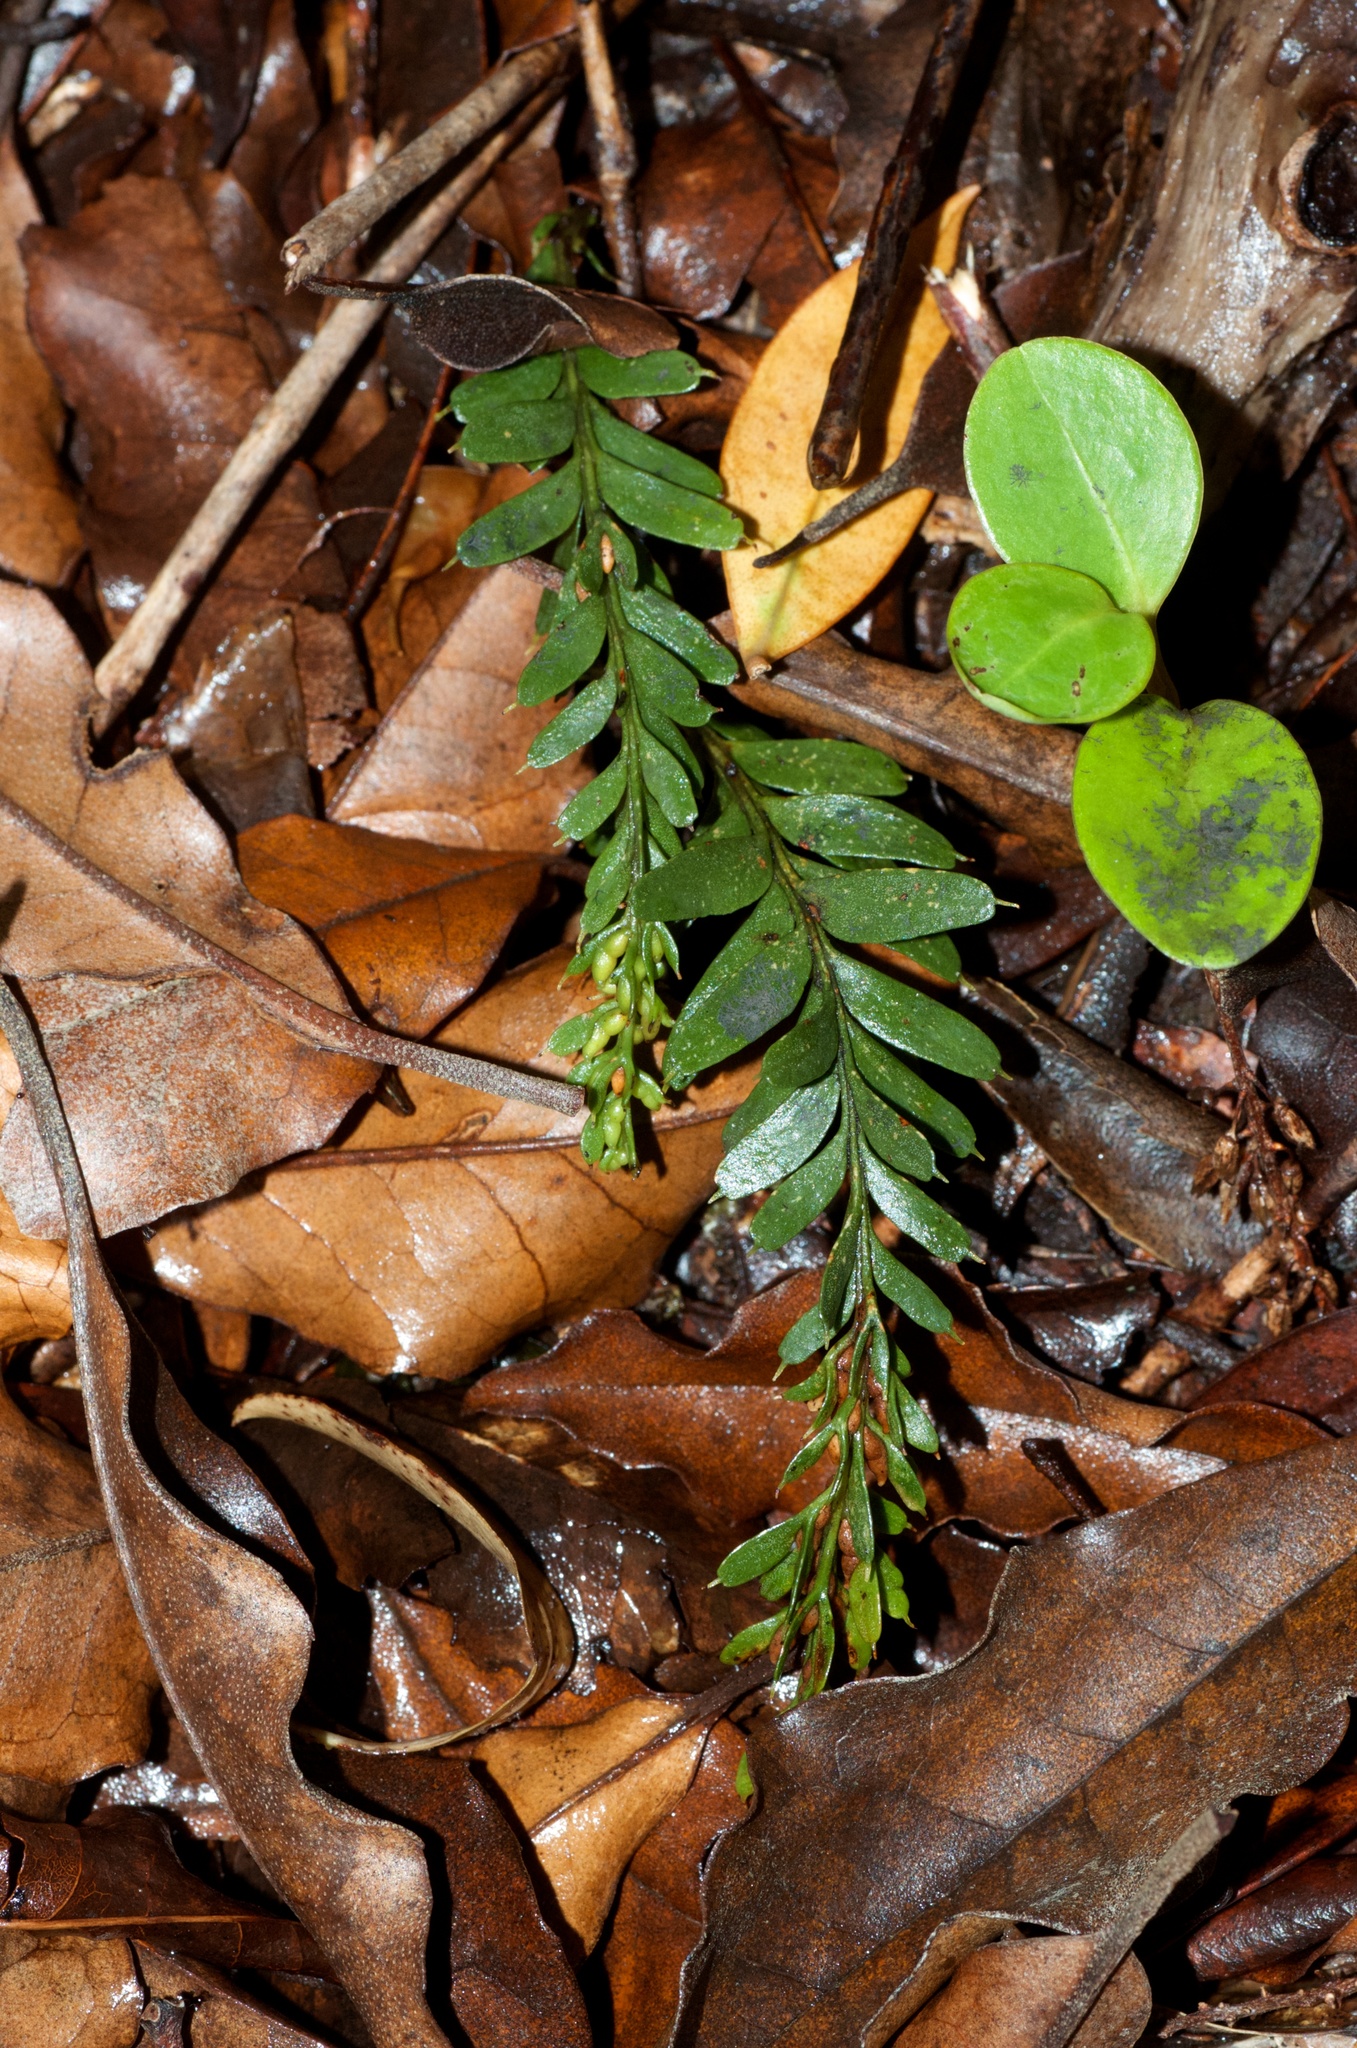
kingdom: Plantae
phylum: Tracheophyta
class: Polypodiopsida
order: Psilotales
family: Psilotaceae
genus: Tmesipteris
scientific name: Tmesipteris tannensis
